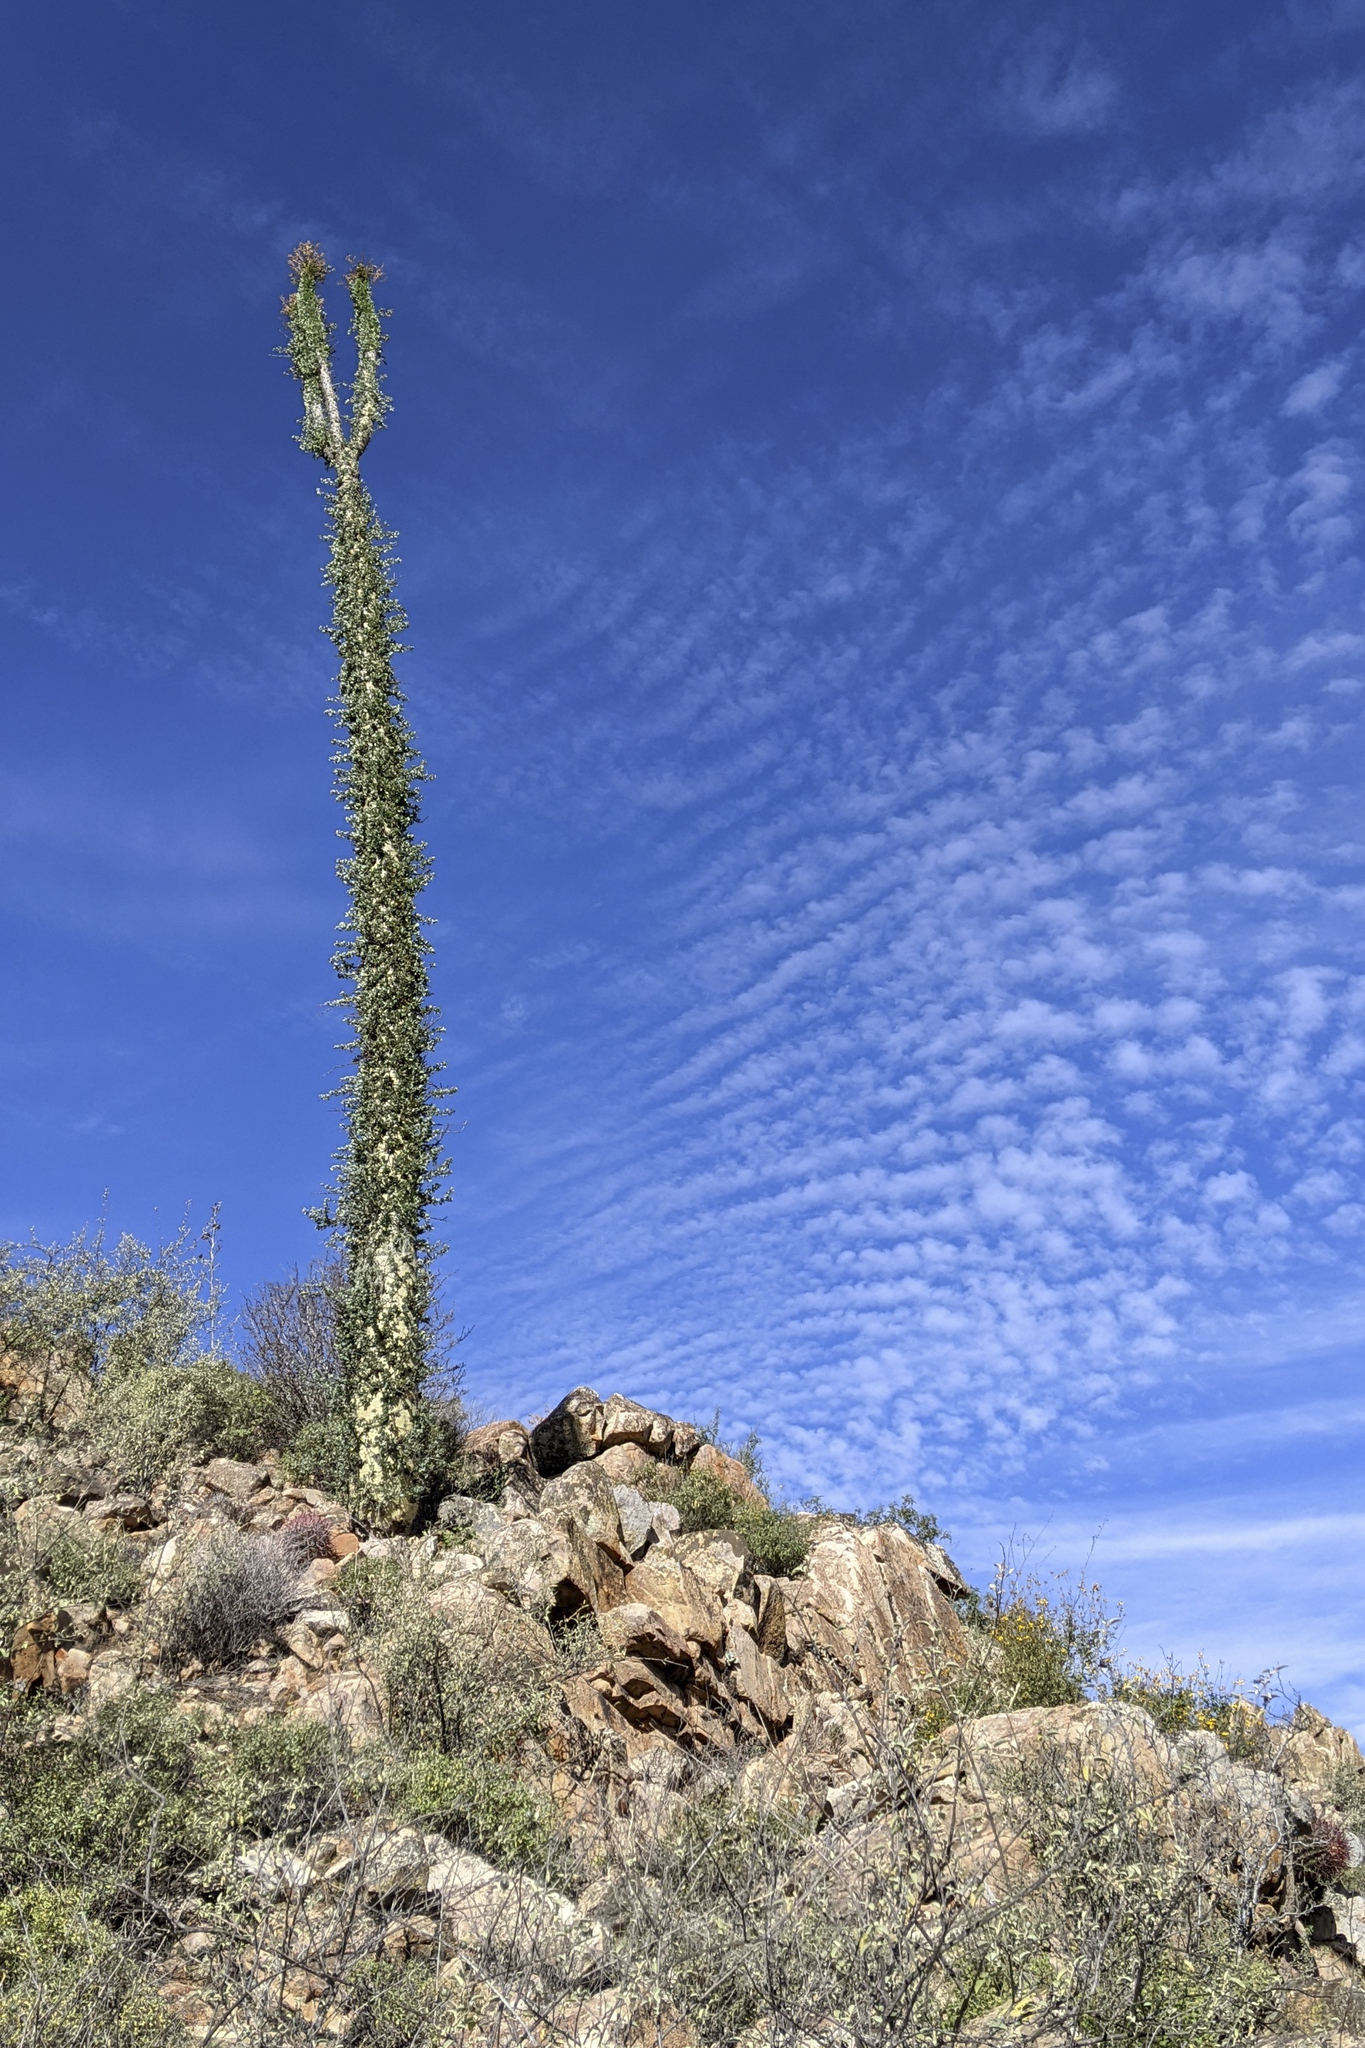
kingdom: Plantae
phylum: Tracheophyta
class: Magnoliopsida
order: Ericales
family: Fouquieriaceae
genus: Fouquieria
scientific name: Fouquieria columnaris
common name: Boojumtree
